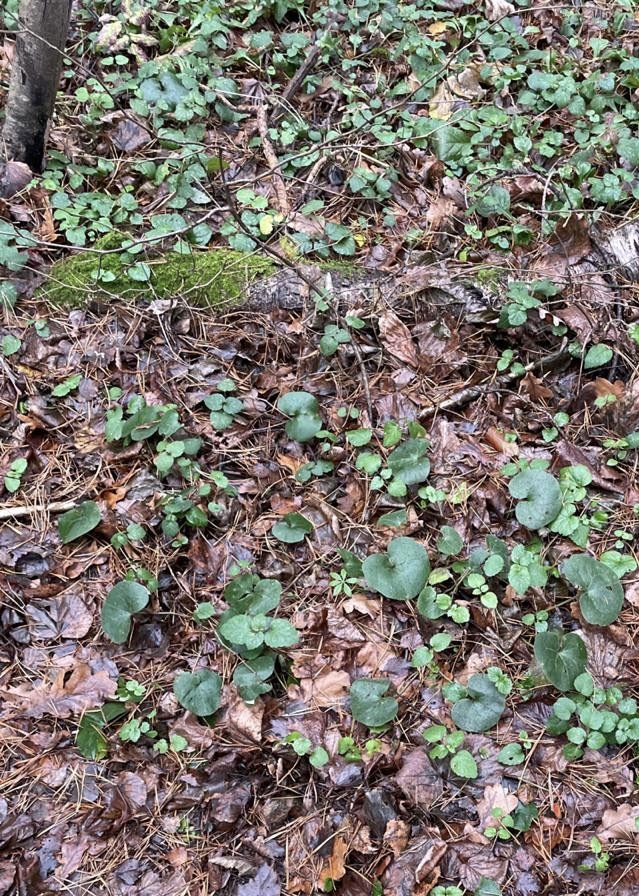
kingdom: Plantae
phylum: Tracheophyta
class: Magnoliopsida
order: Piperales
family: Aristolochiaceae
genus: Asarum
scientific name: Asarum europaeum
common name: Asarabacca
